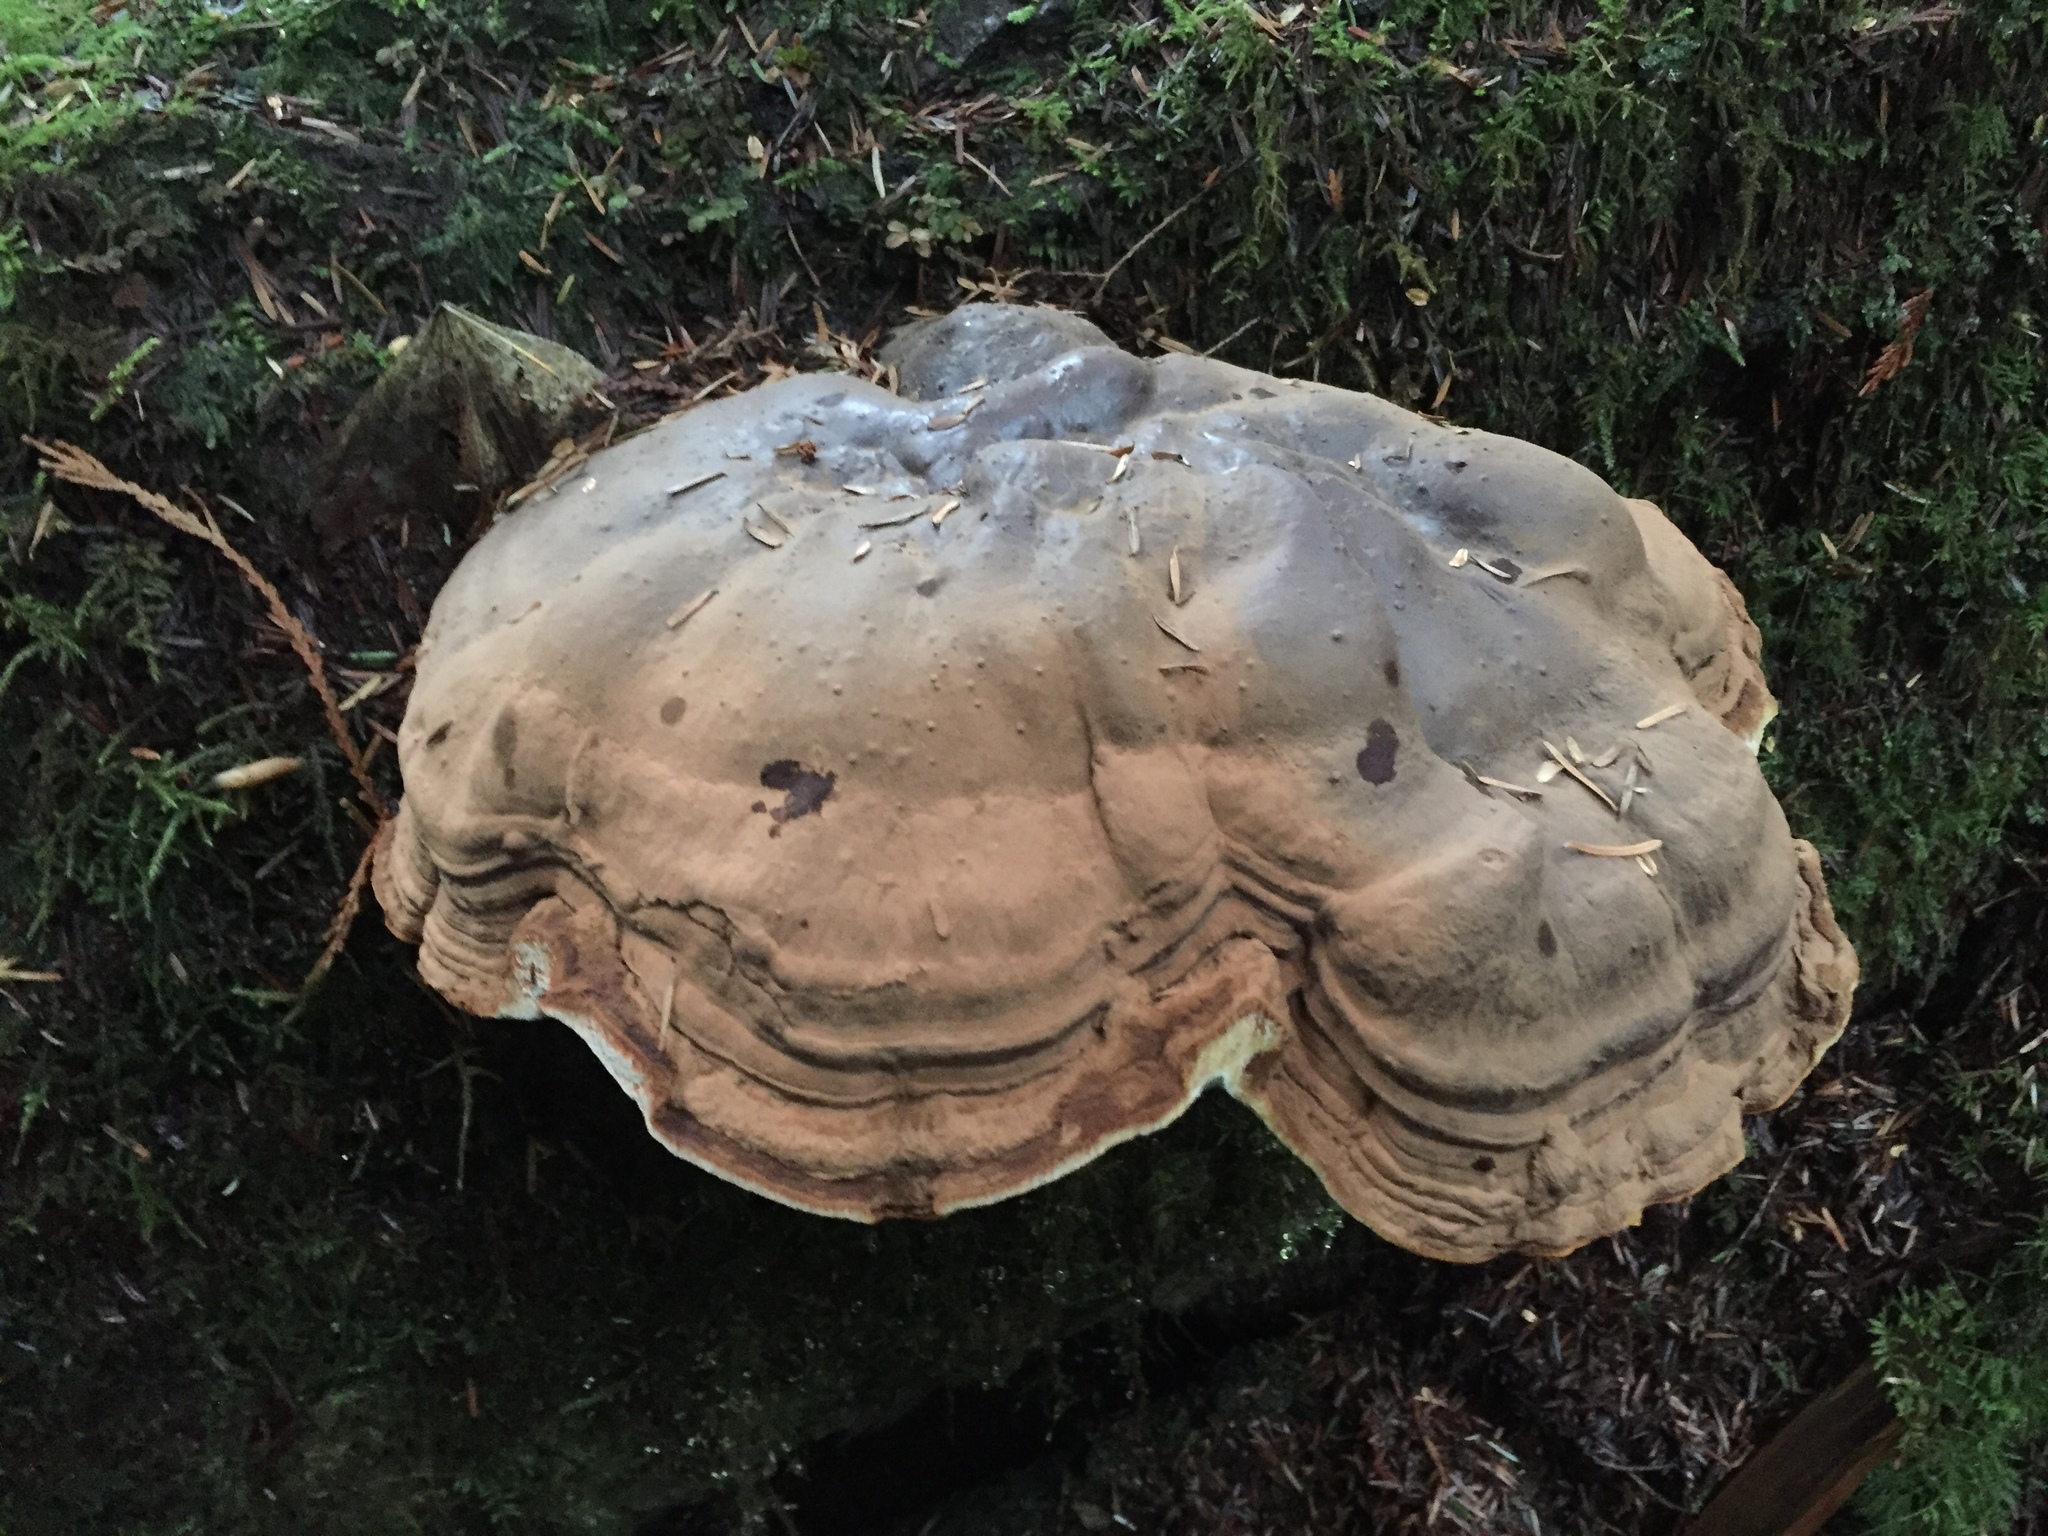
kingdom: Fungi
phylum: Basidiomycota
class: Agaricomycetes
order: Polyporales
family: Polyporaceae
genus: Ganoderma
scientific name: Ganoderma applanatum
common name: Artist's bracket
